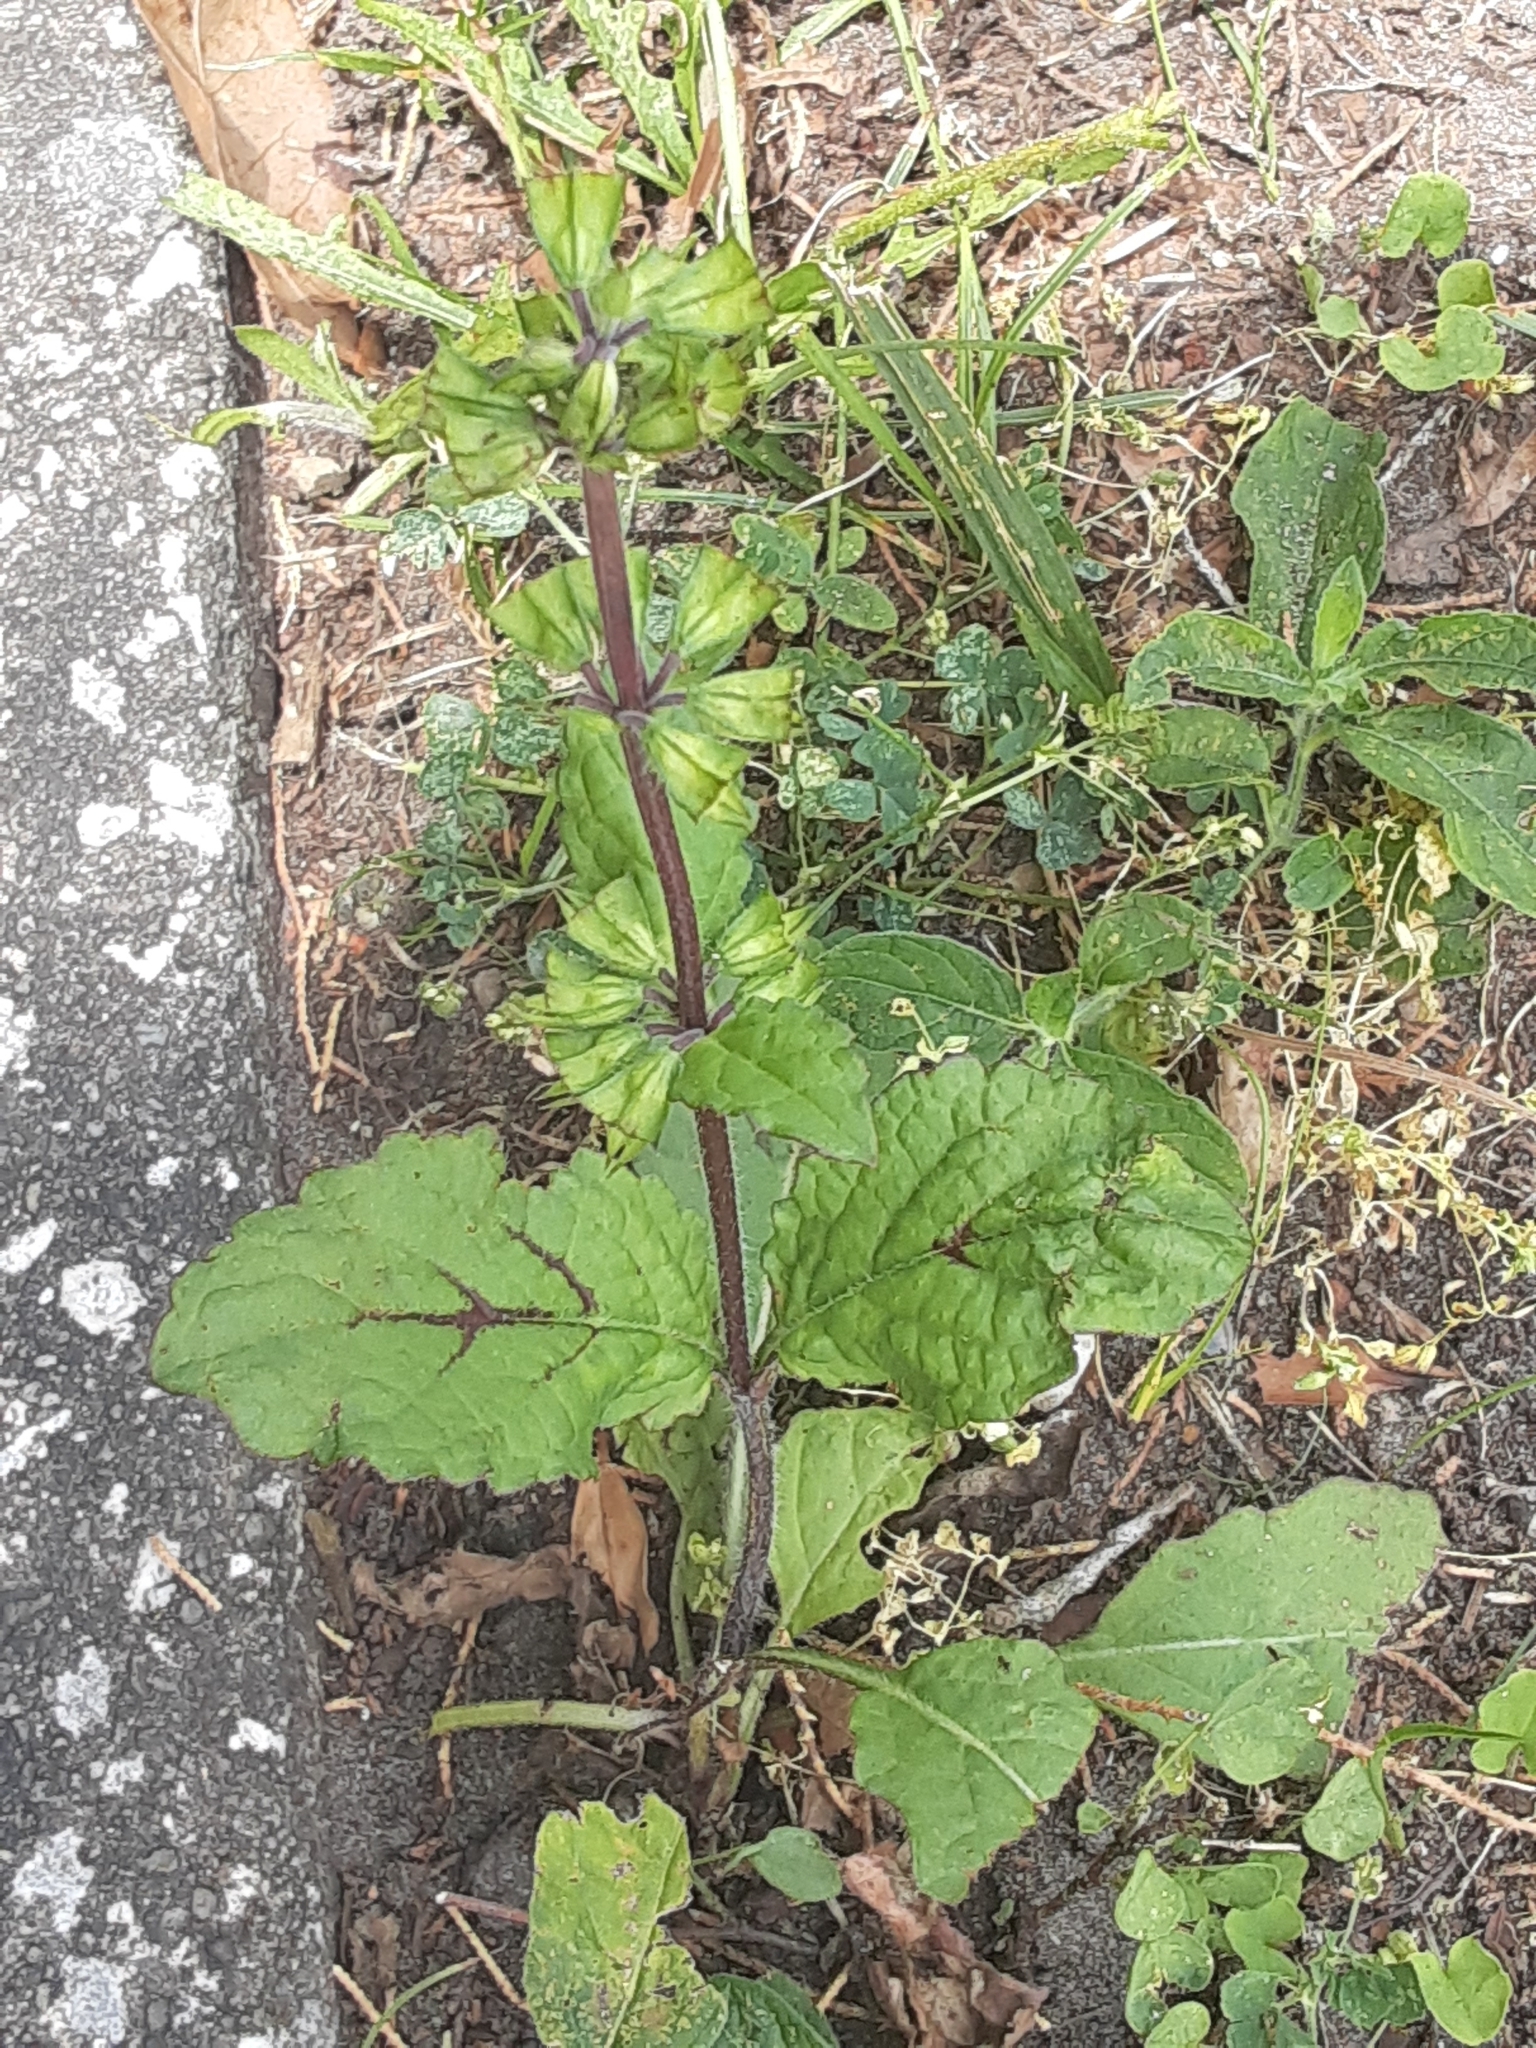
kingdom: Plantae
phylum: Tracheophyta
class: Magnoliopsida
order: Lamiales
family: Lamiaceae
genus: Salvia
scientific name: Salvia lyrata
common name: Cancerweed
